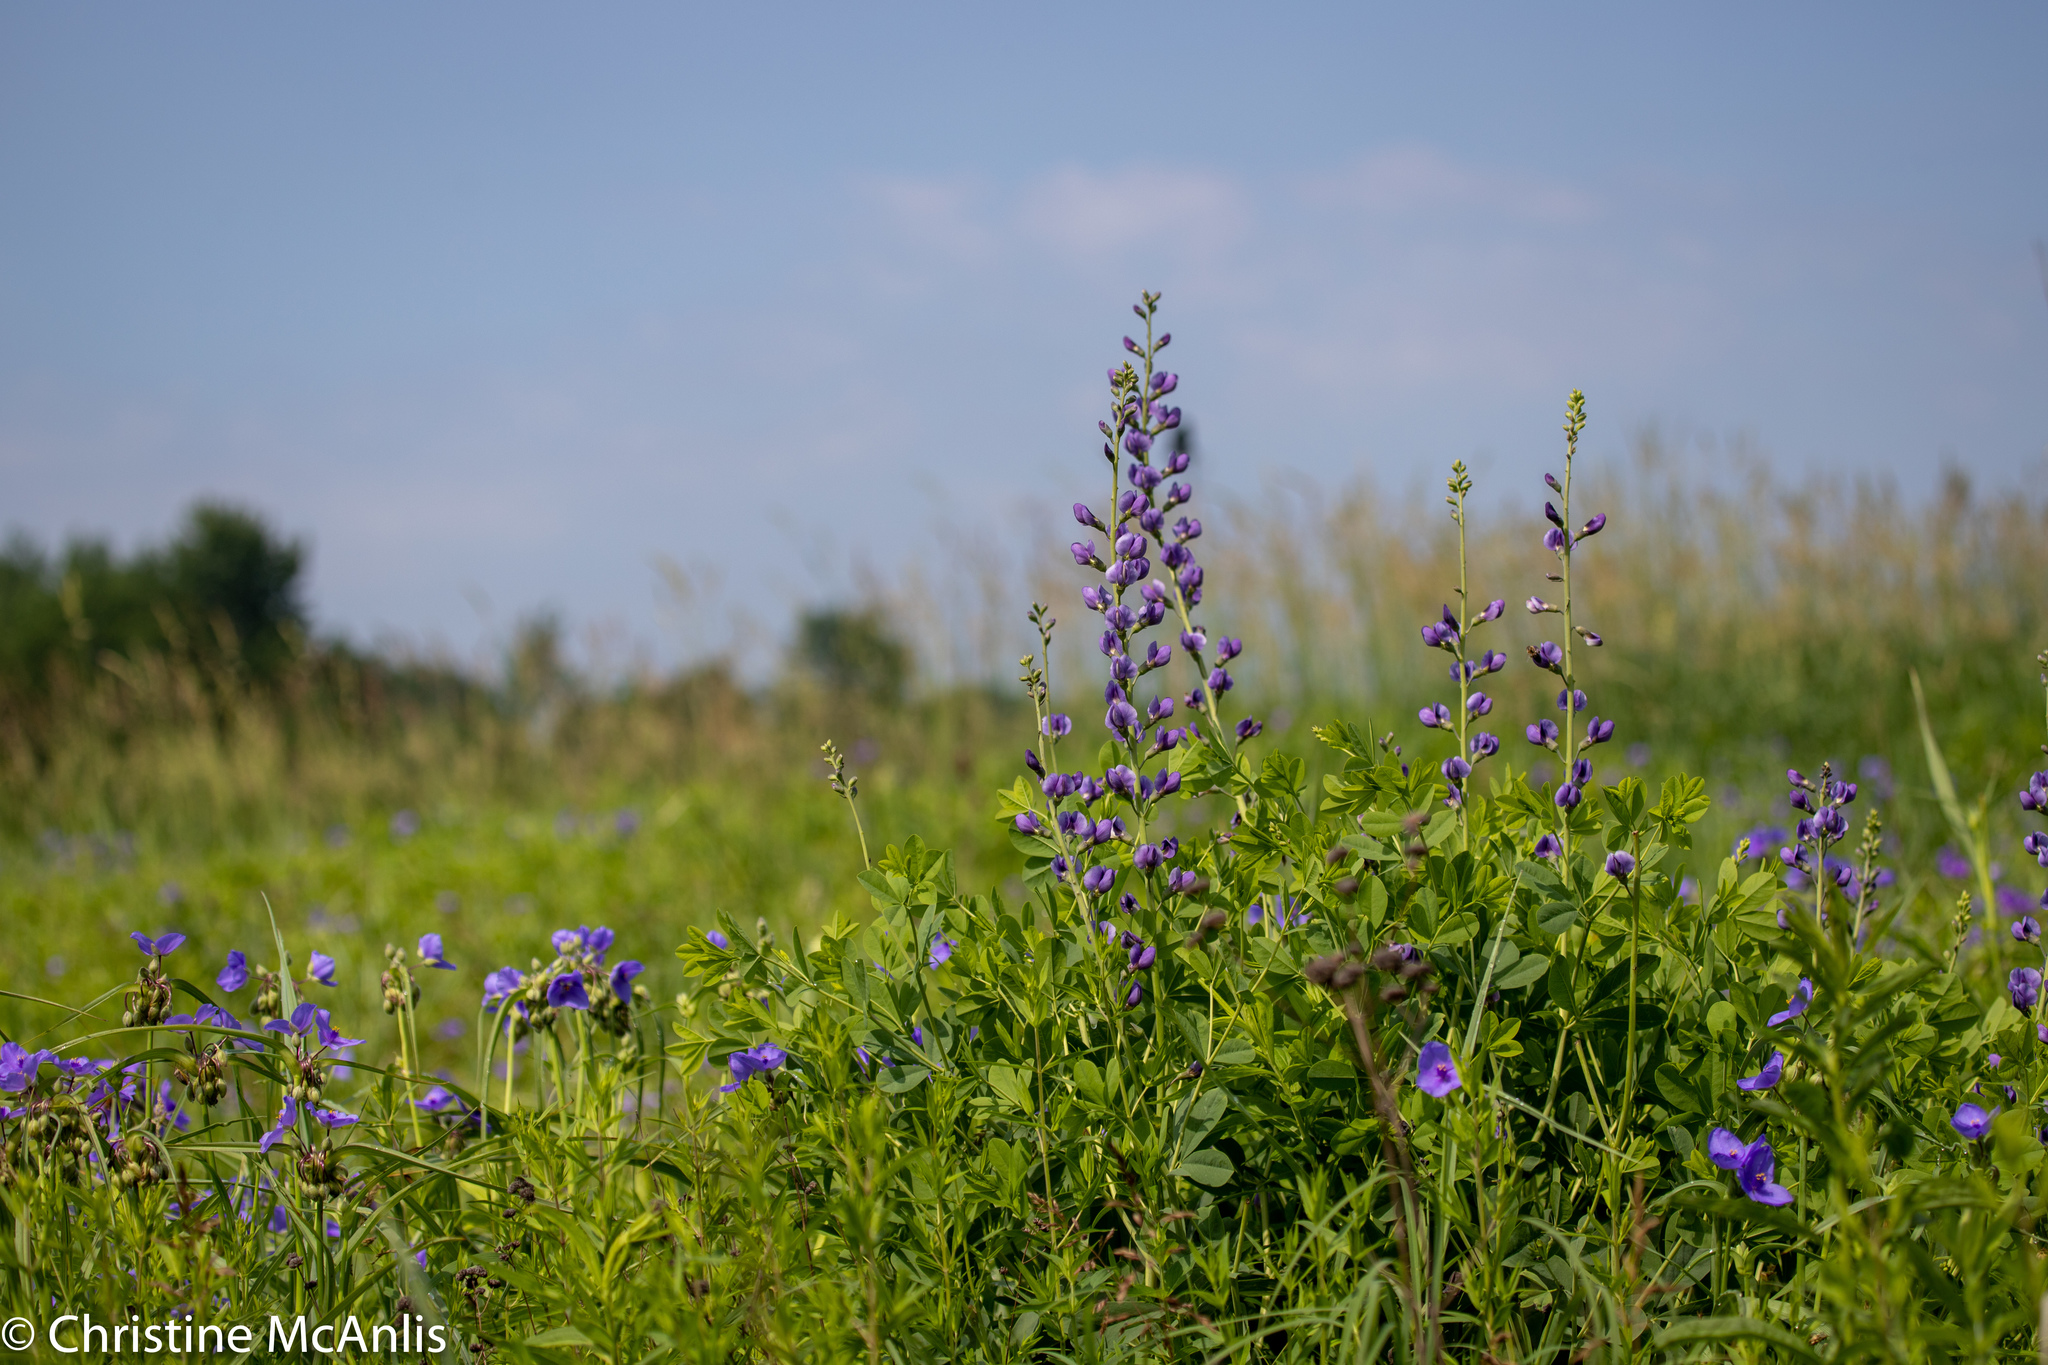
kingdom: Plantae
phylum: Tracheophyta
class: Magnoliopsida
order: Fabales
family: Fabaceae
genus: Baptisia
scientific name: Baptisia australis
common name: Blue false indigo
